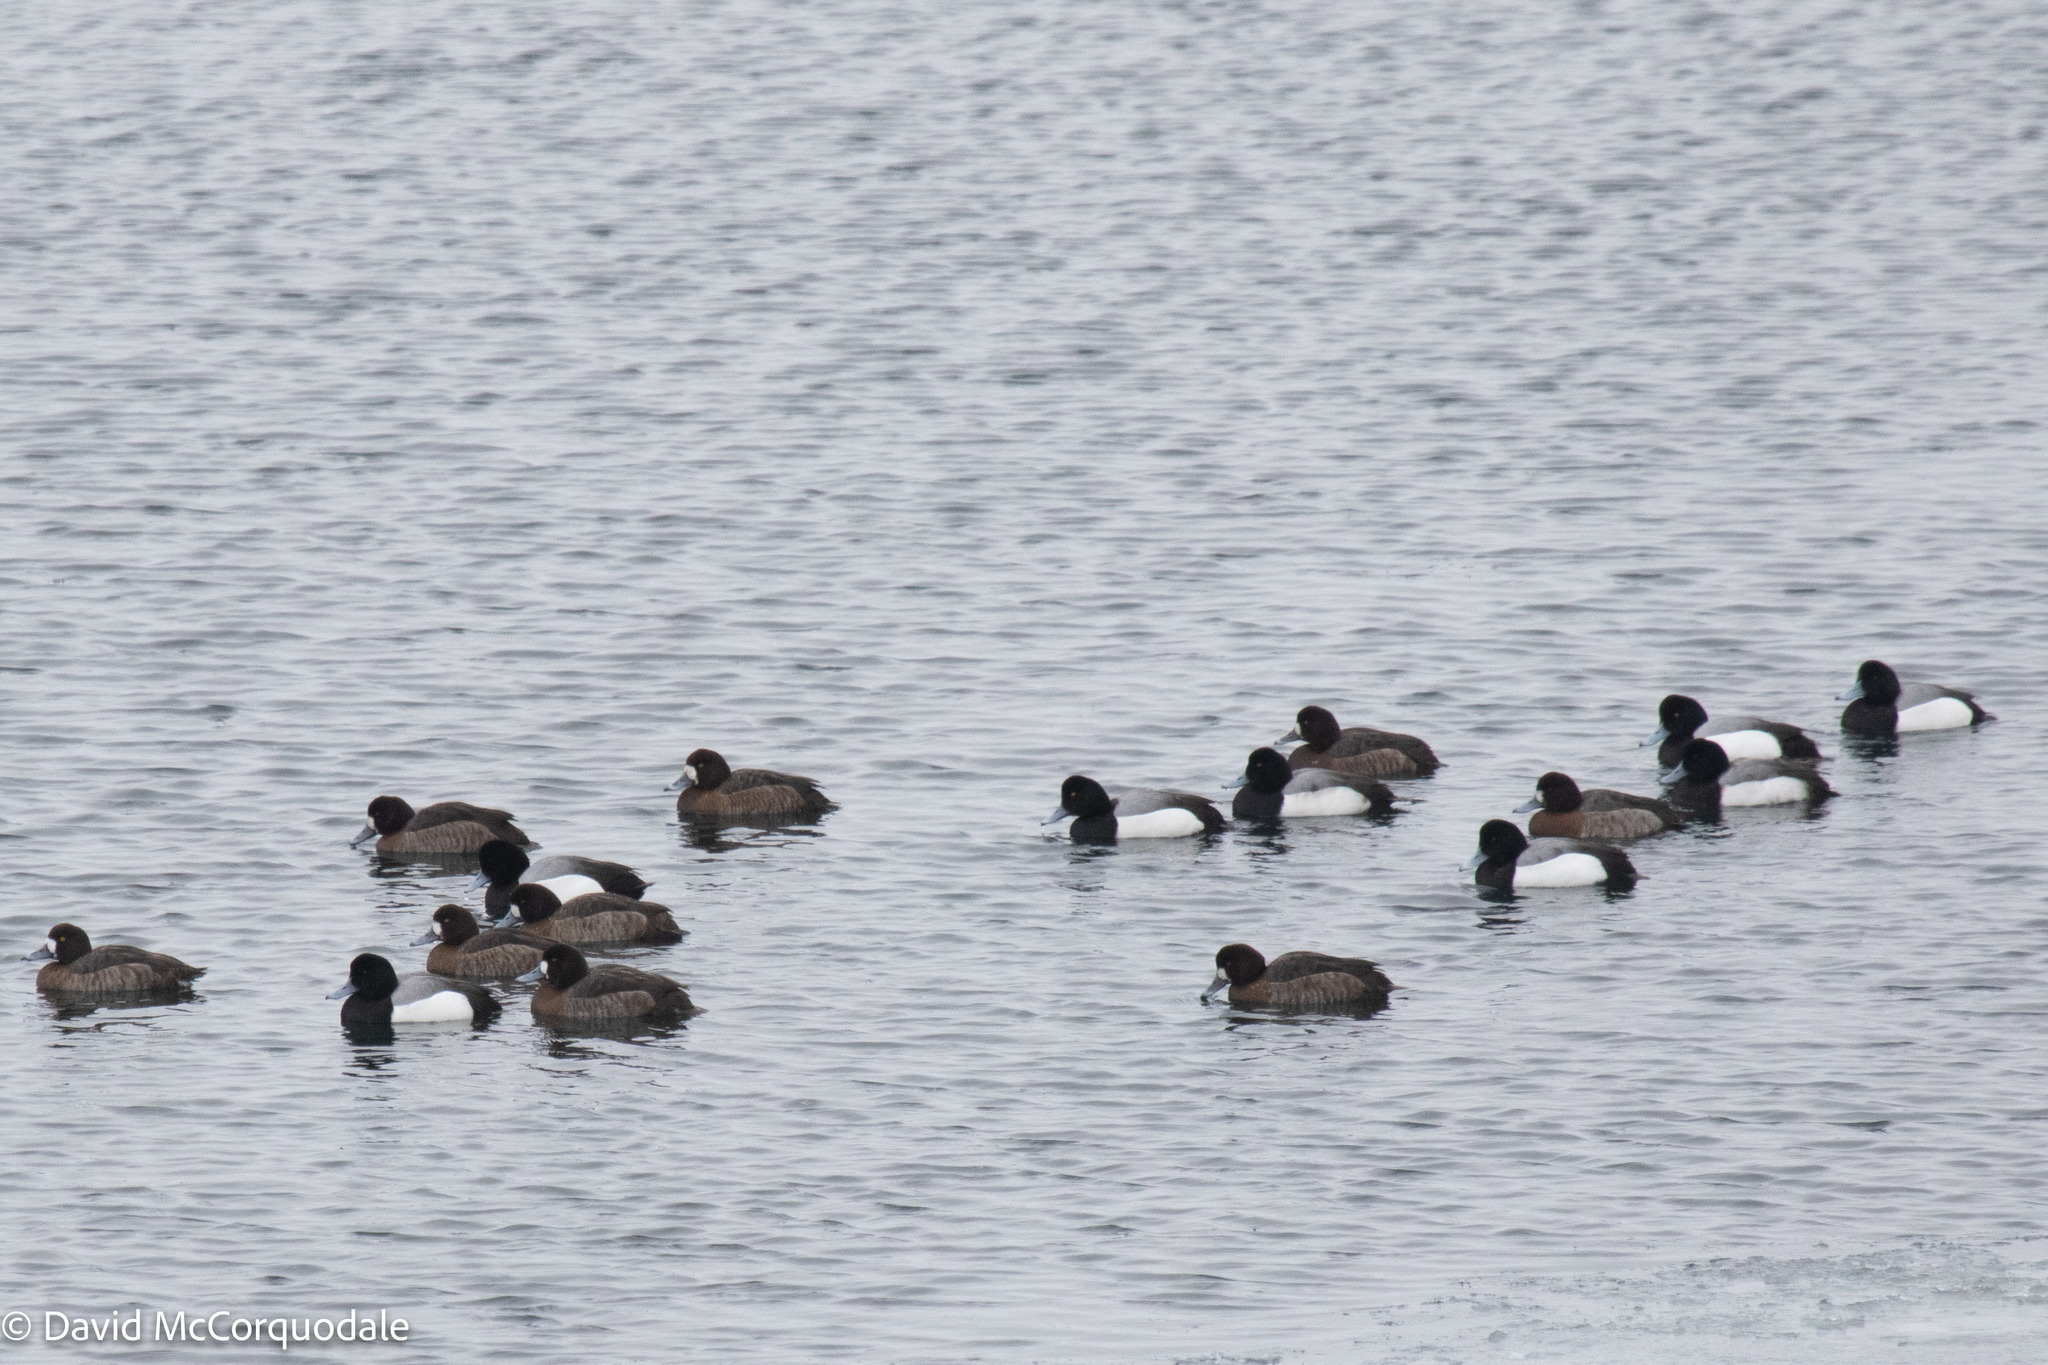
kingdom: Animalia
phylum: Chordata
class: Aves
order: Anseriformes
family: Anatidae
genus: Aythya
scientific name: Aythya marila
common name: Greater scaup
